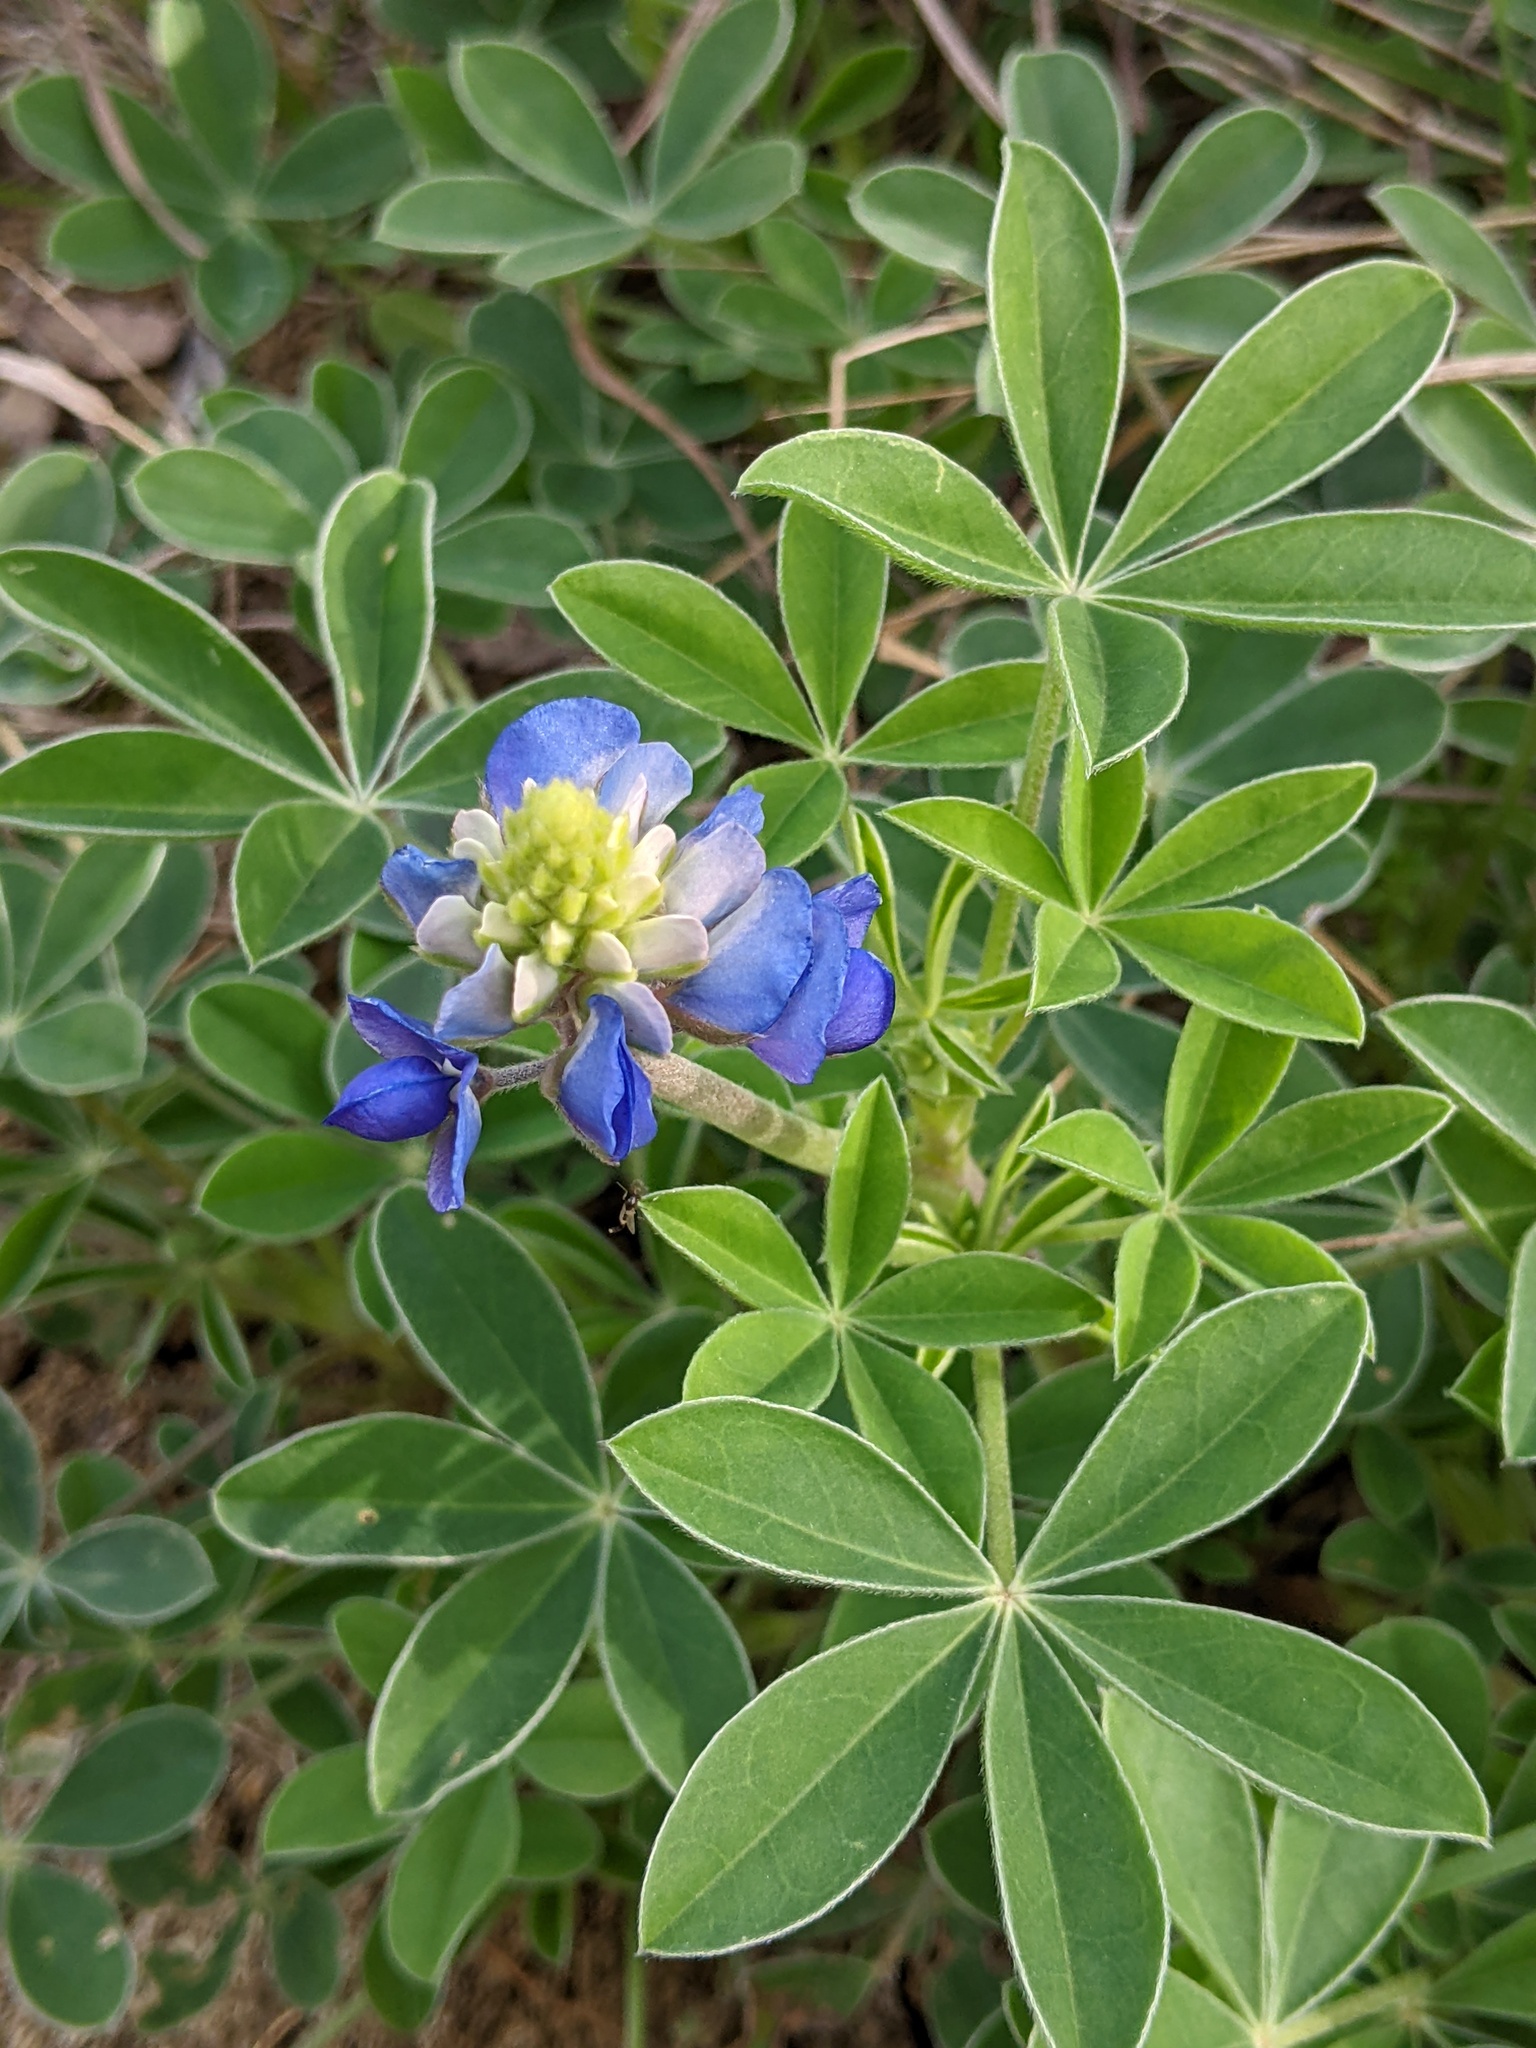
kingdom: Plantae
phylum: Tracheophyta
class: Magnoliopsida
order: Fabales
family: Fabaceae
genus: Lupinus
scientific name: Lupinus texensis
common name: Texas bluebonnet
